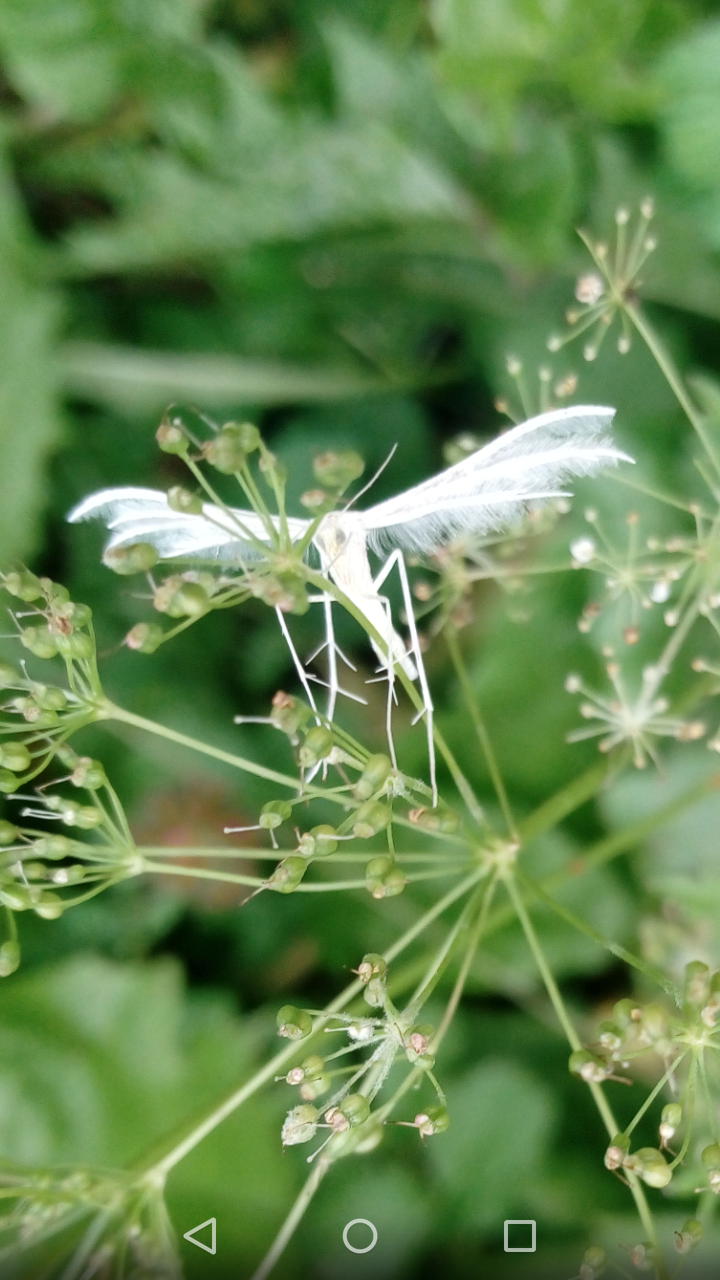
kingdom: Animalia
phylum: Arthropoda
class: Insecta
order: Lepidoptera
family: Pterophoridae
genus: Pterophorus
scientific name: Pterophorus pentadactyla
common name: White plume moth
